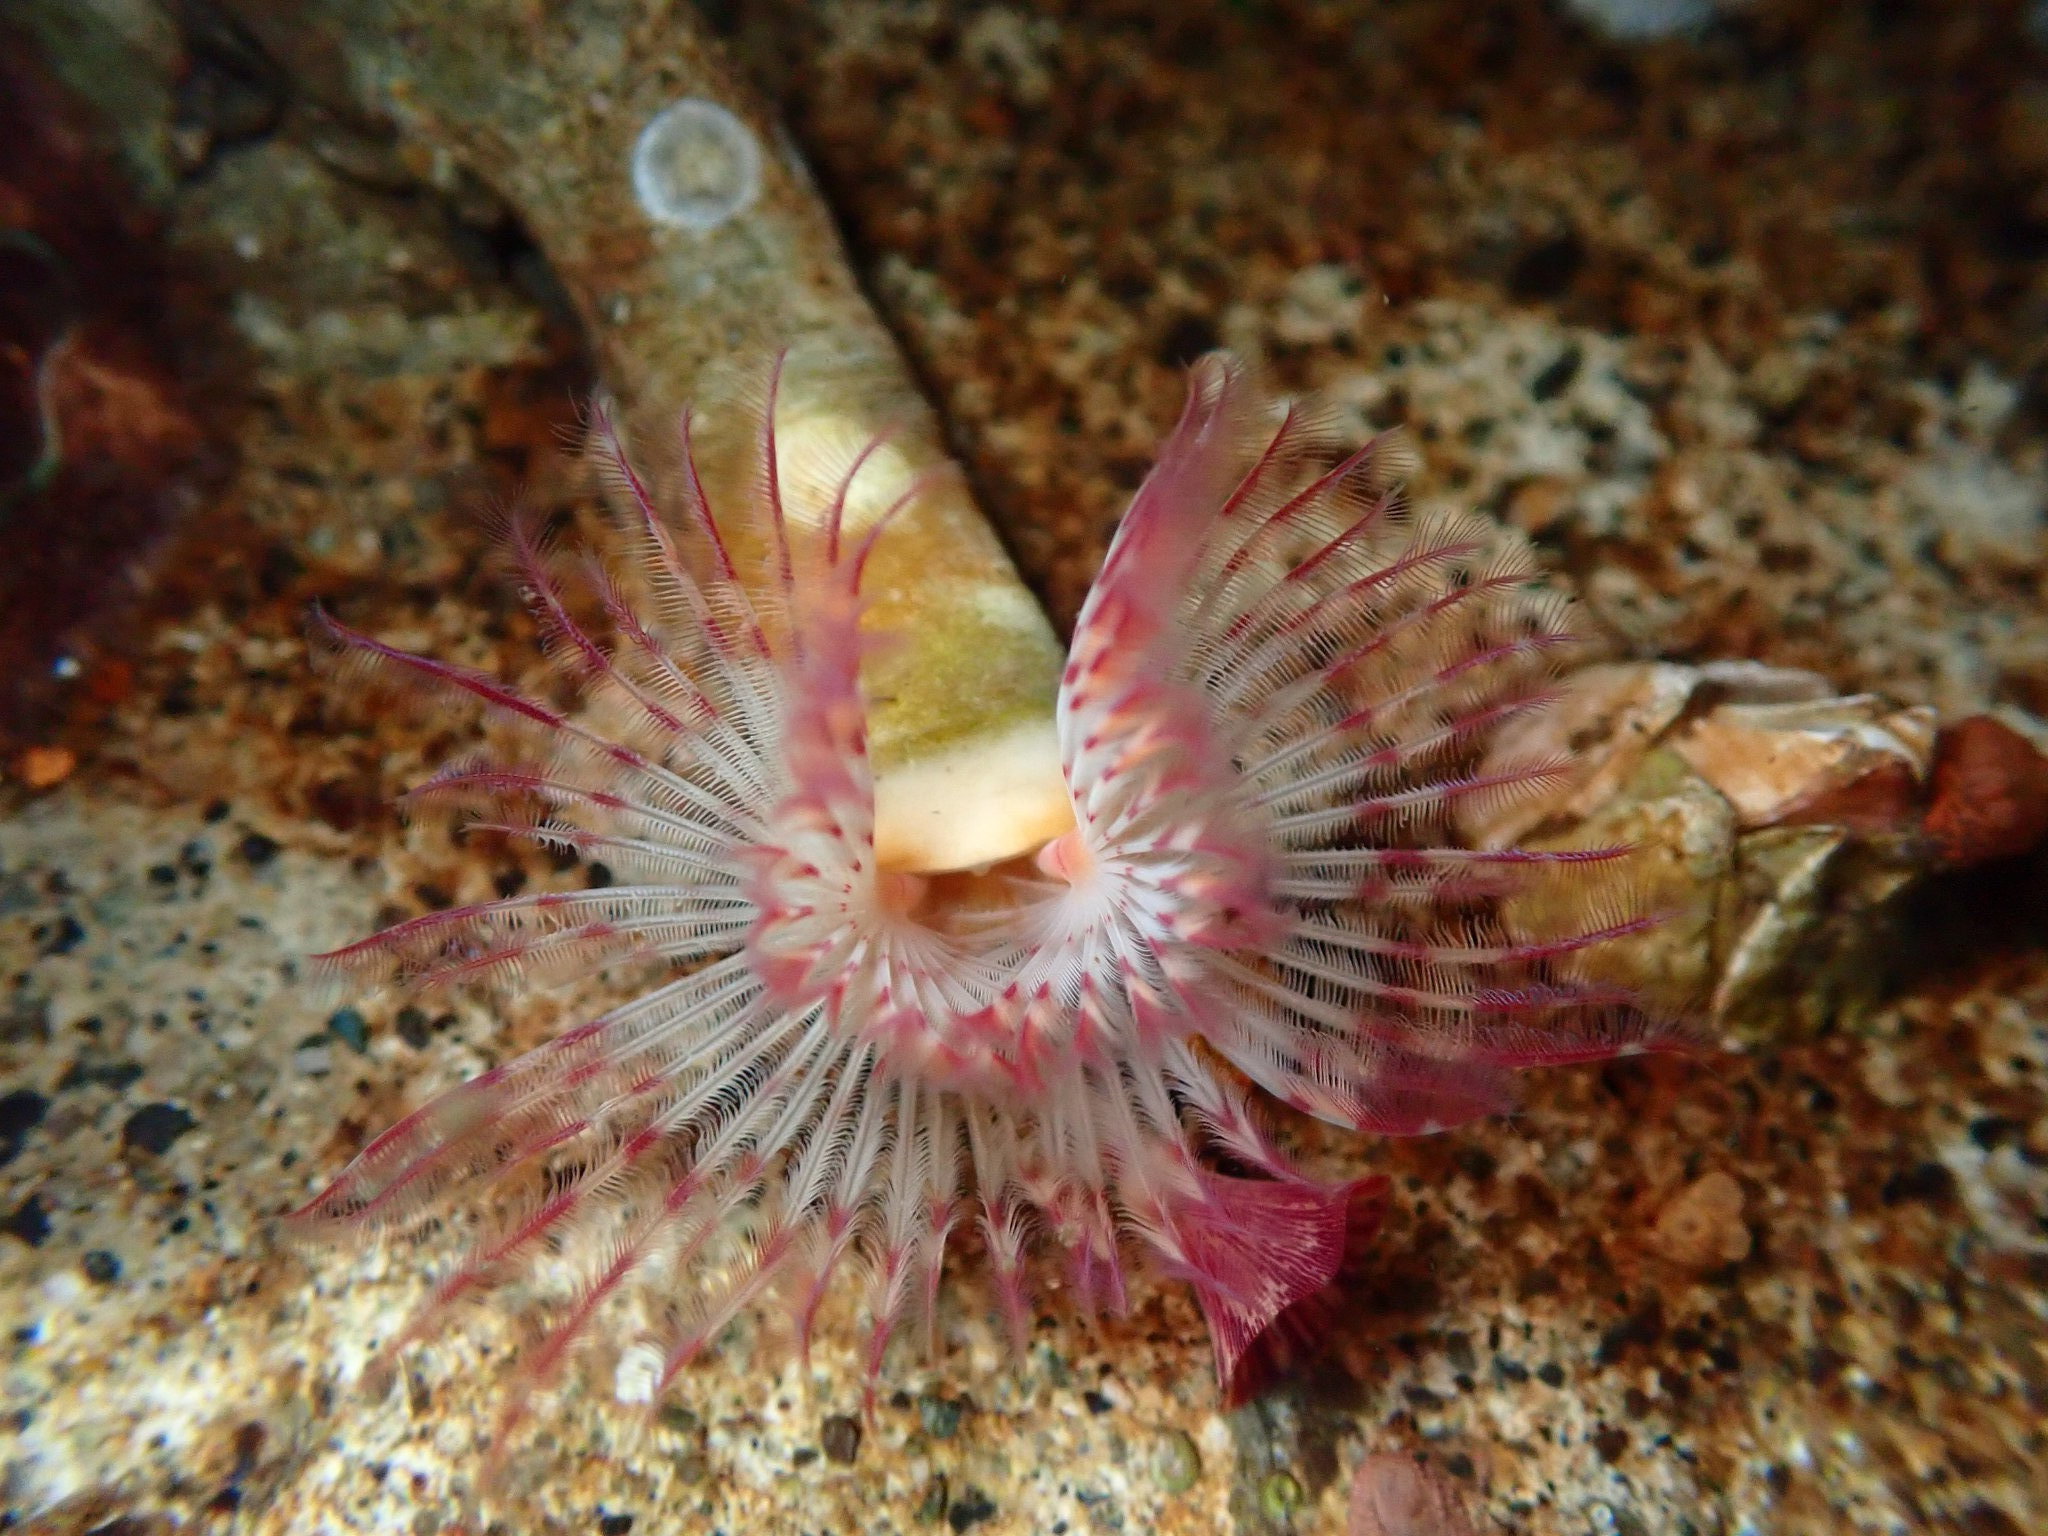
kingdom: Animalia
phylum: Annelida
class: Polychaeta
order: Sabellida
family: Serpulidae
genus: Serpula
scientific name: Serpula columbiana
